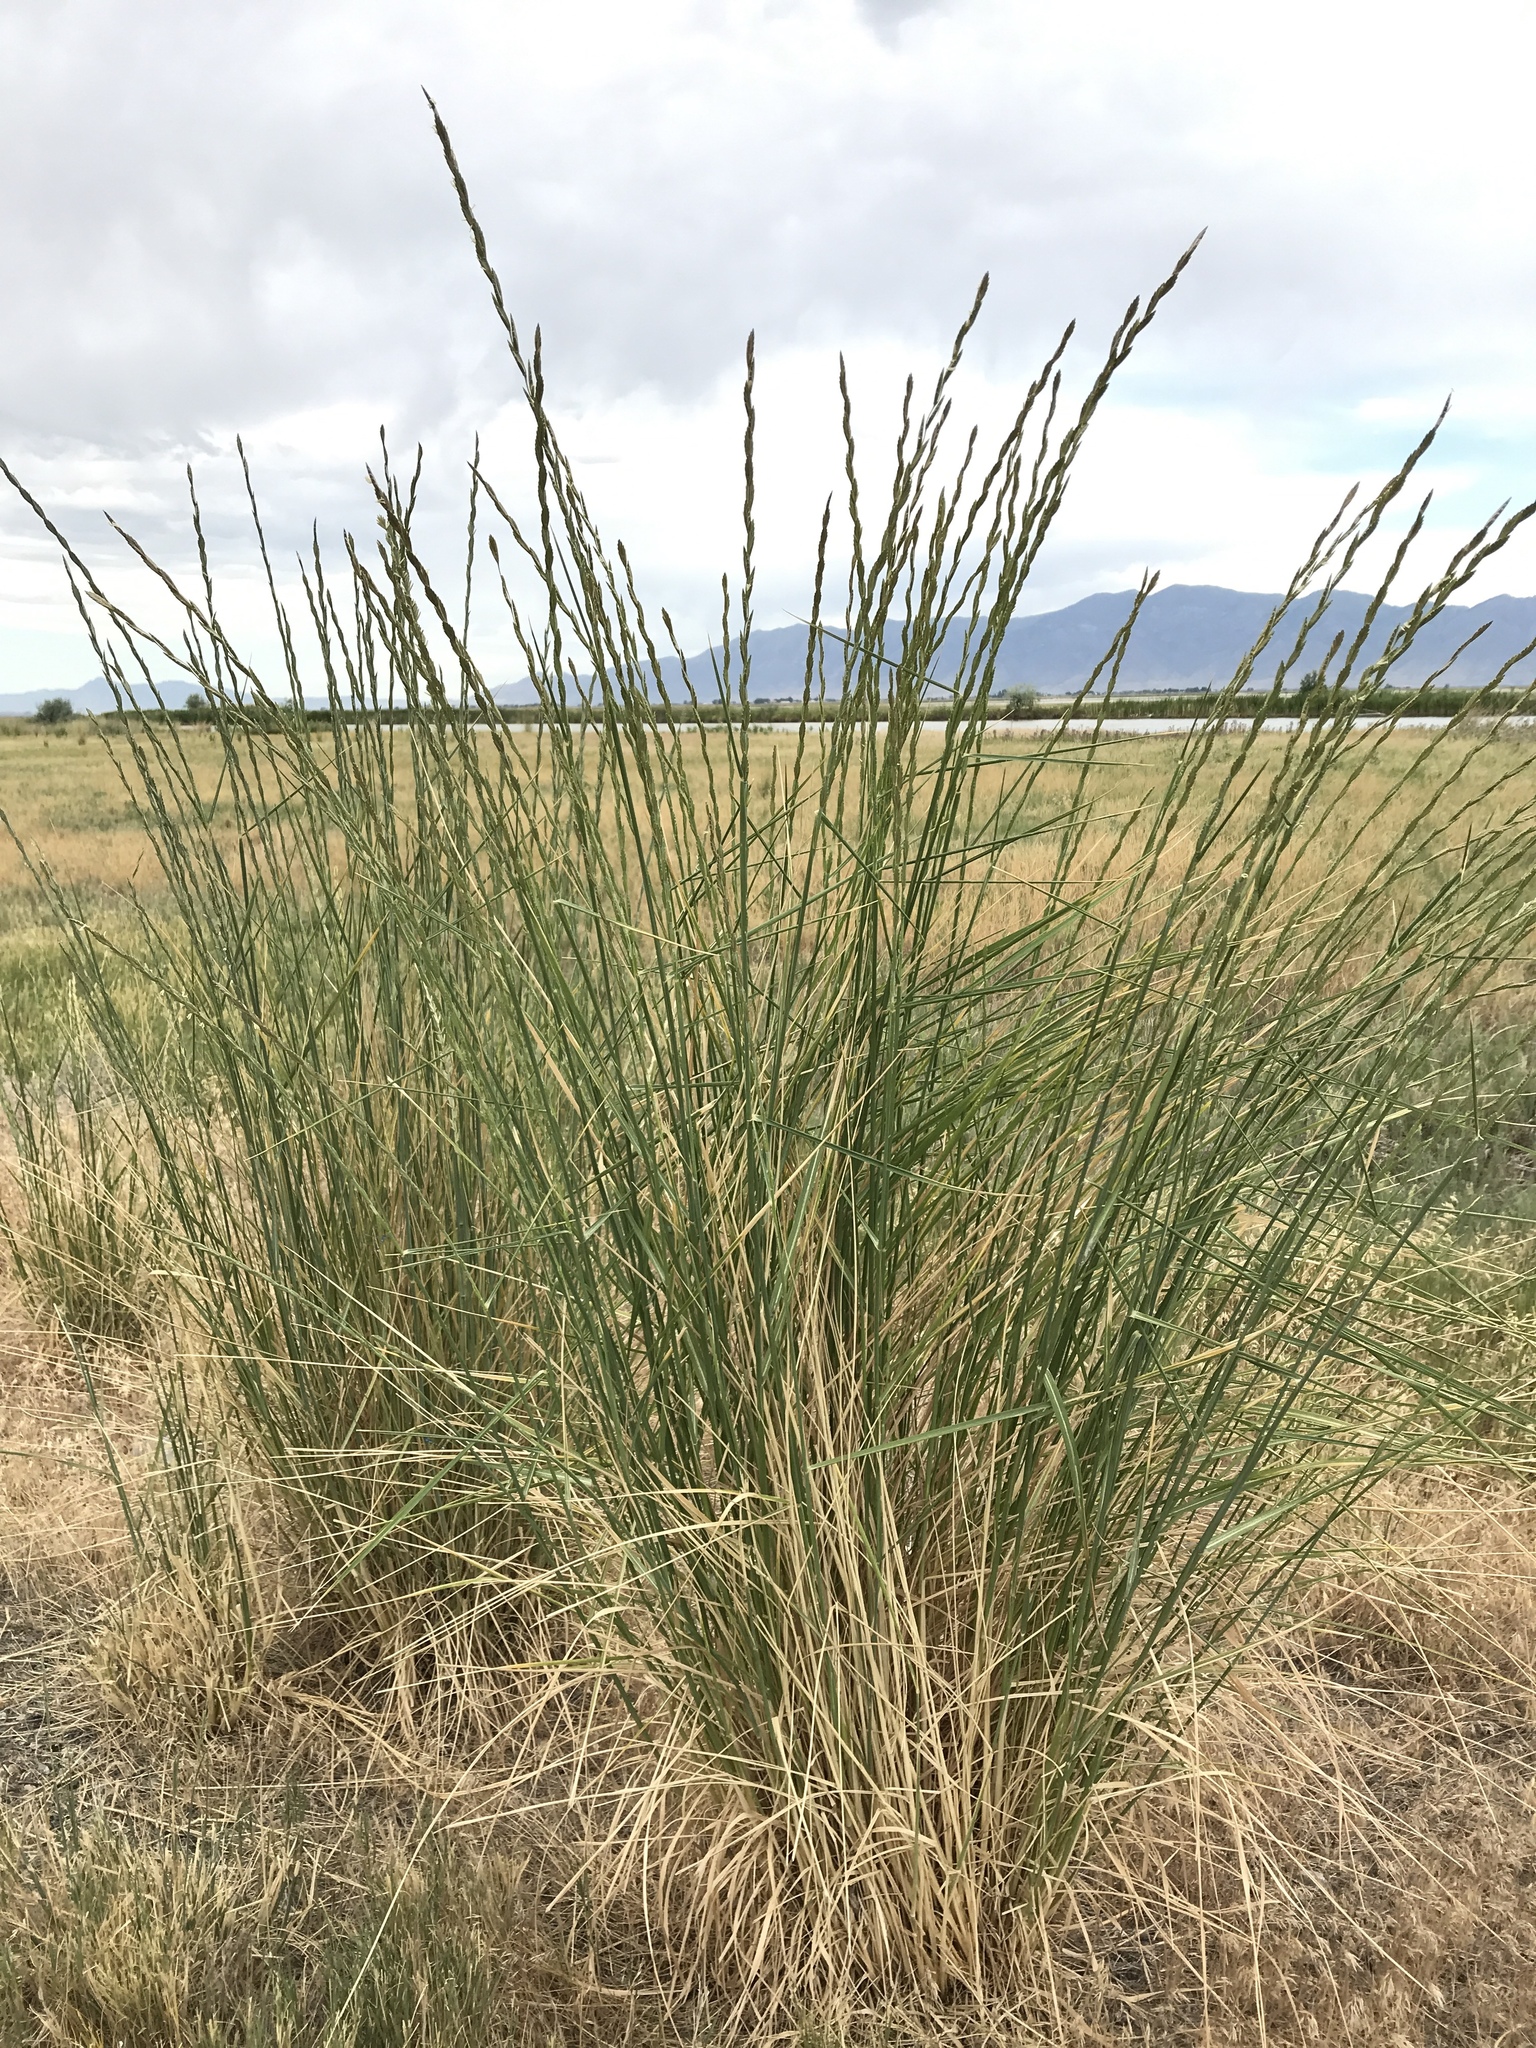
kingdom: Plantae
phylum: Tracheophyta
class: Liliopsida
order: Poales
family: Poaceae
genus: Thinopyrum
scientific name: Thinopyrum obtusiflorum
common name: Eurasian quackgrass
